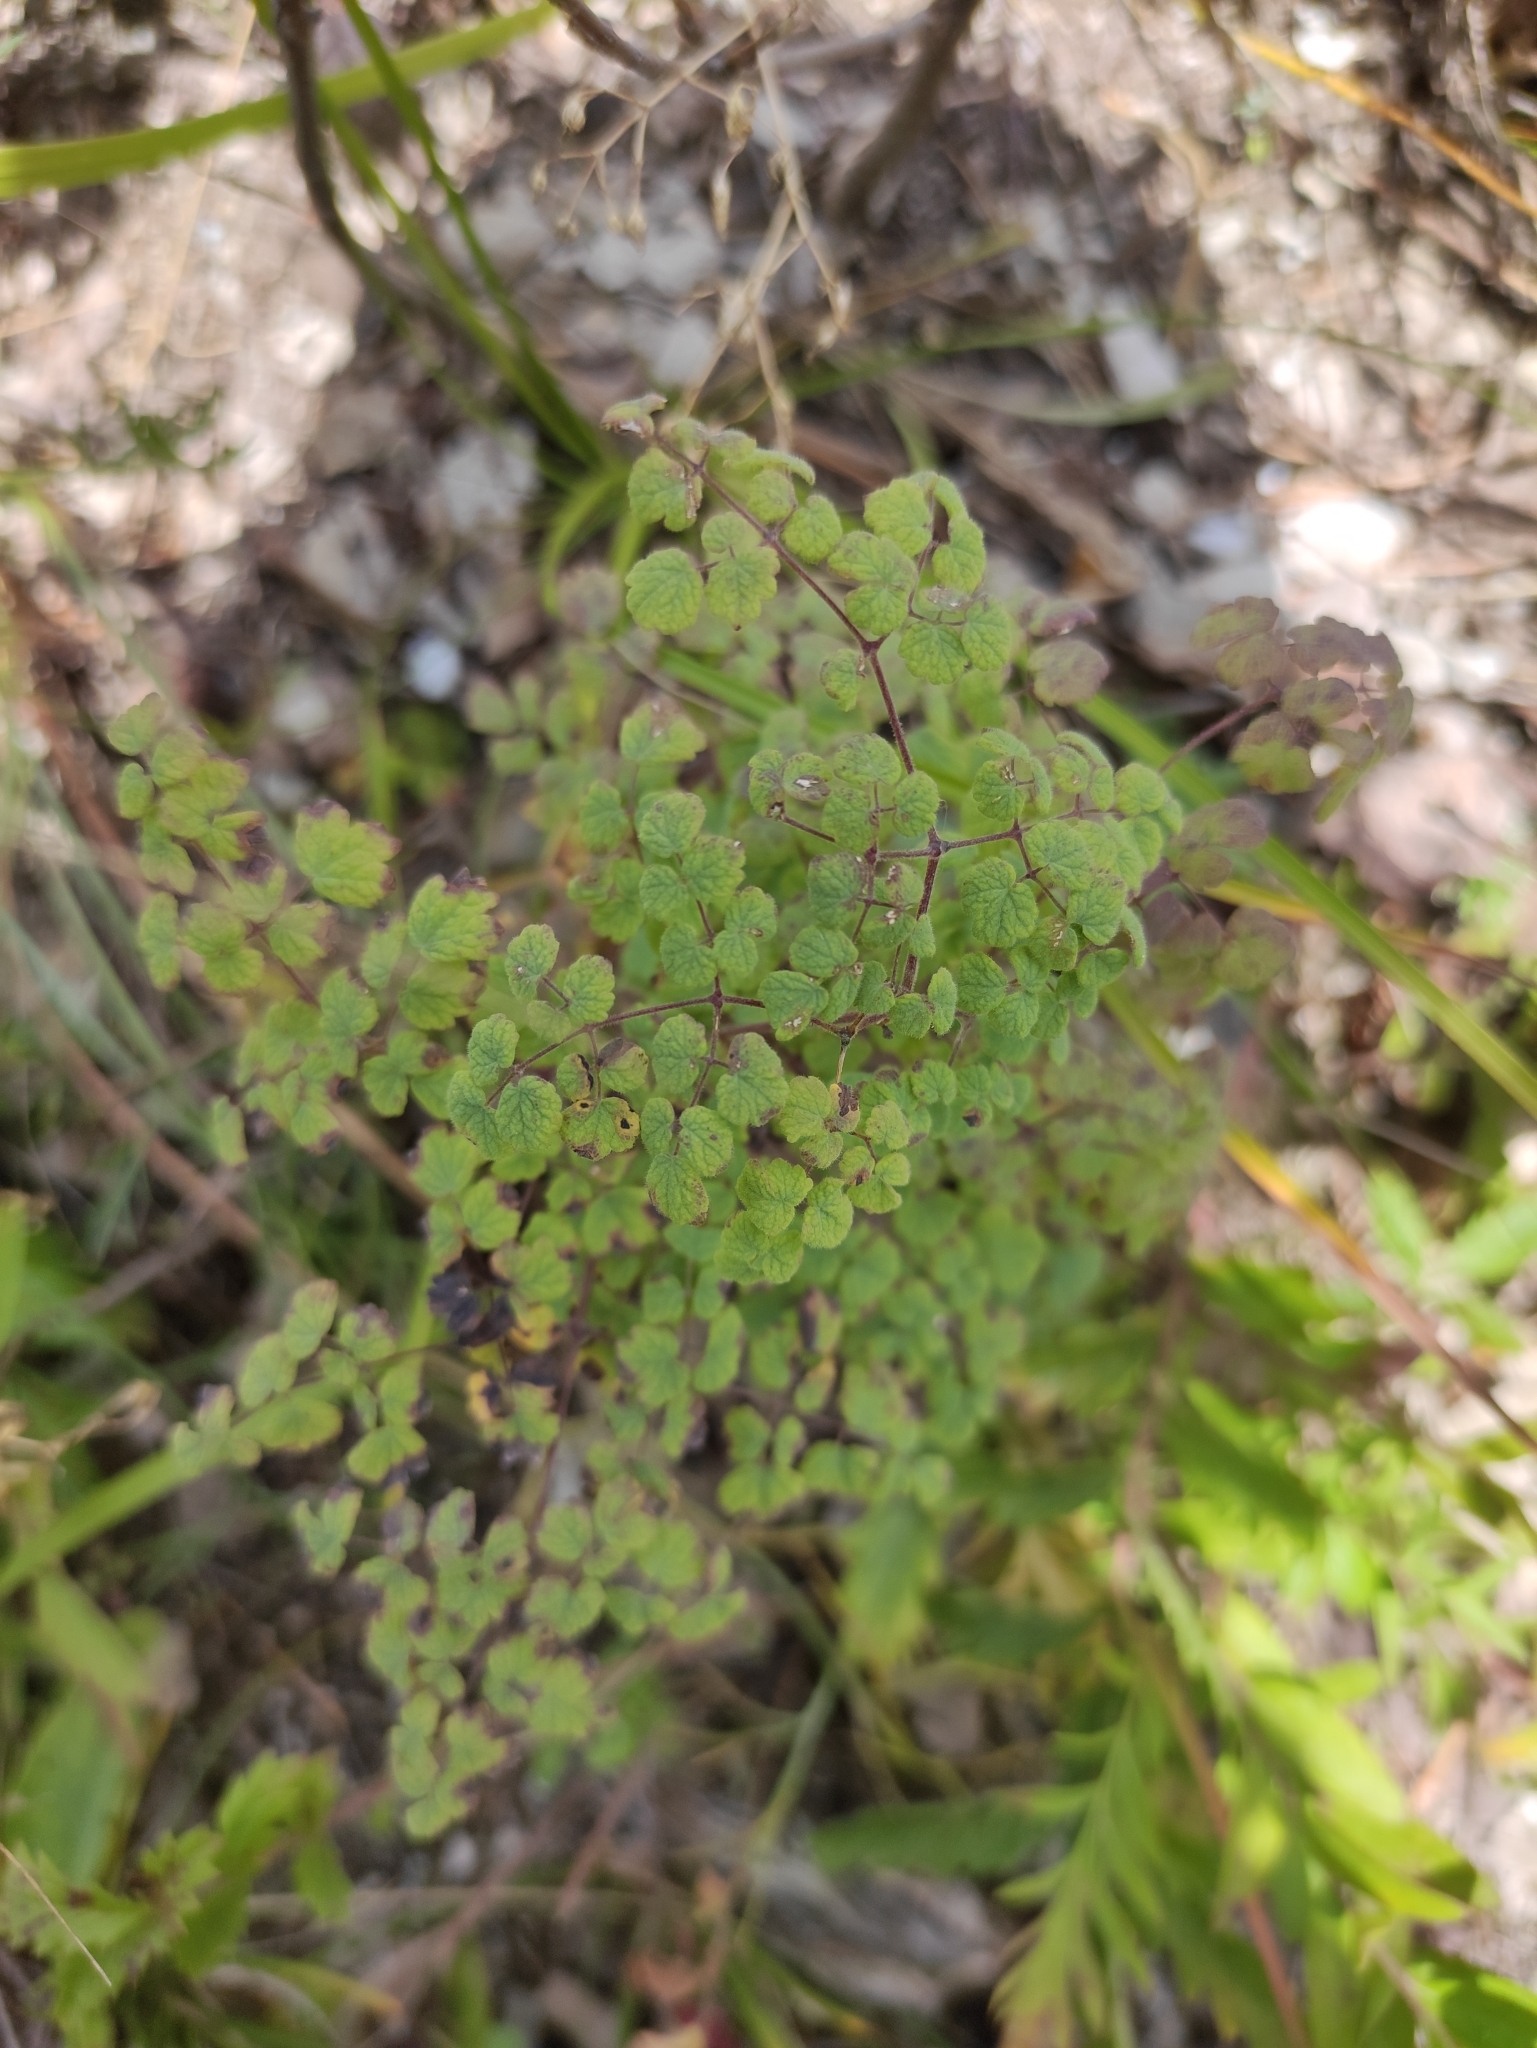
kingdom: Plantae
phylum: Tracheophyta
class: Magnoliopsida
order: Ranunculales
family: Ranunculaceae
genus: Thalictrum
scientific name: Thalictrum foetidum
